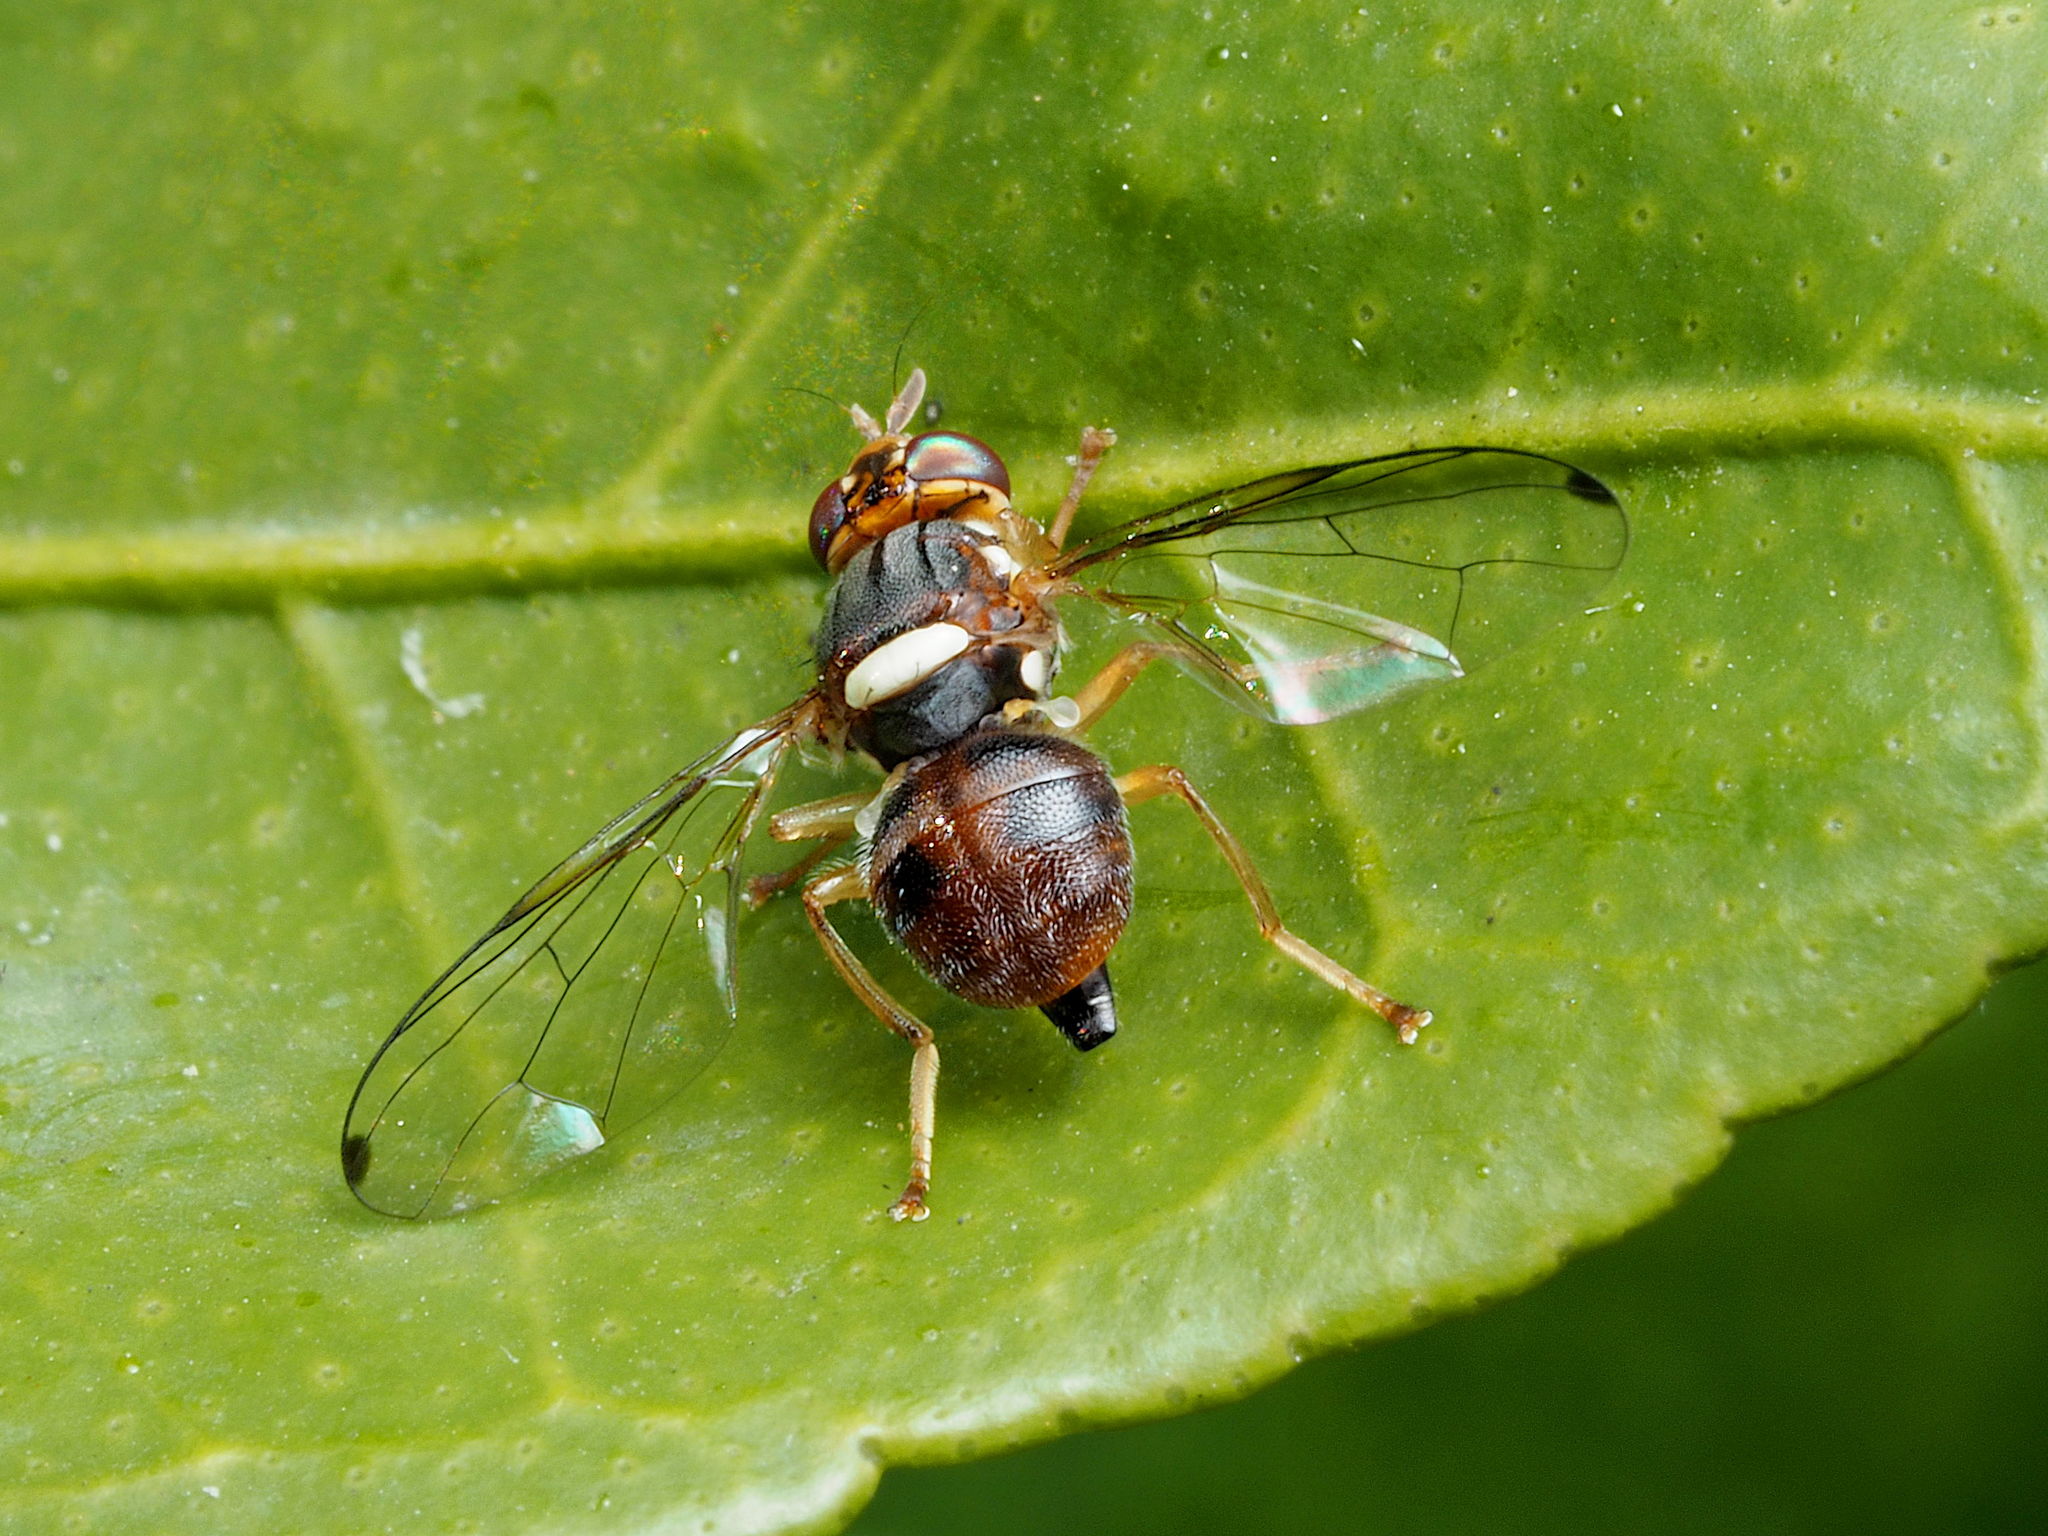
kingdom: Animalia
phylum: Arthropoda
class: Insecta
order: Diptera
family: Tephritidae
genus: Bactrocera
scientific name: Bactrocera oleae
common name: Olive fruit fly
